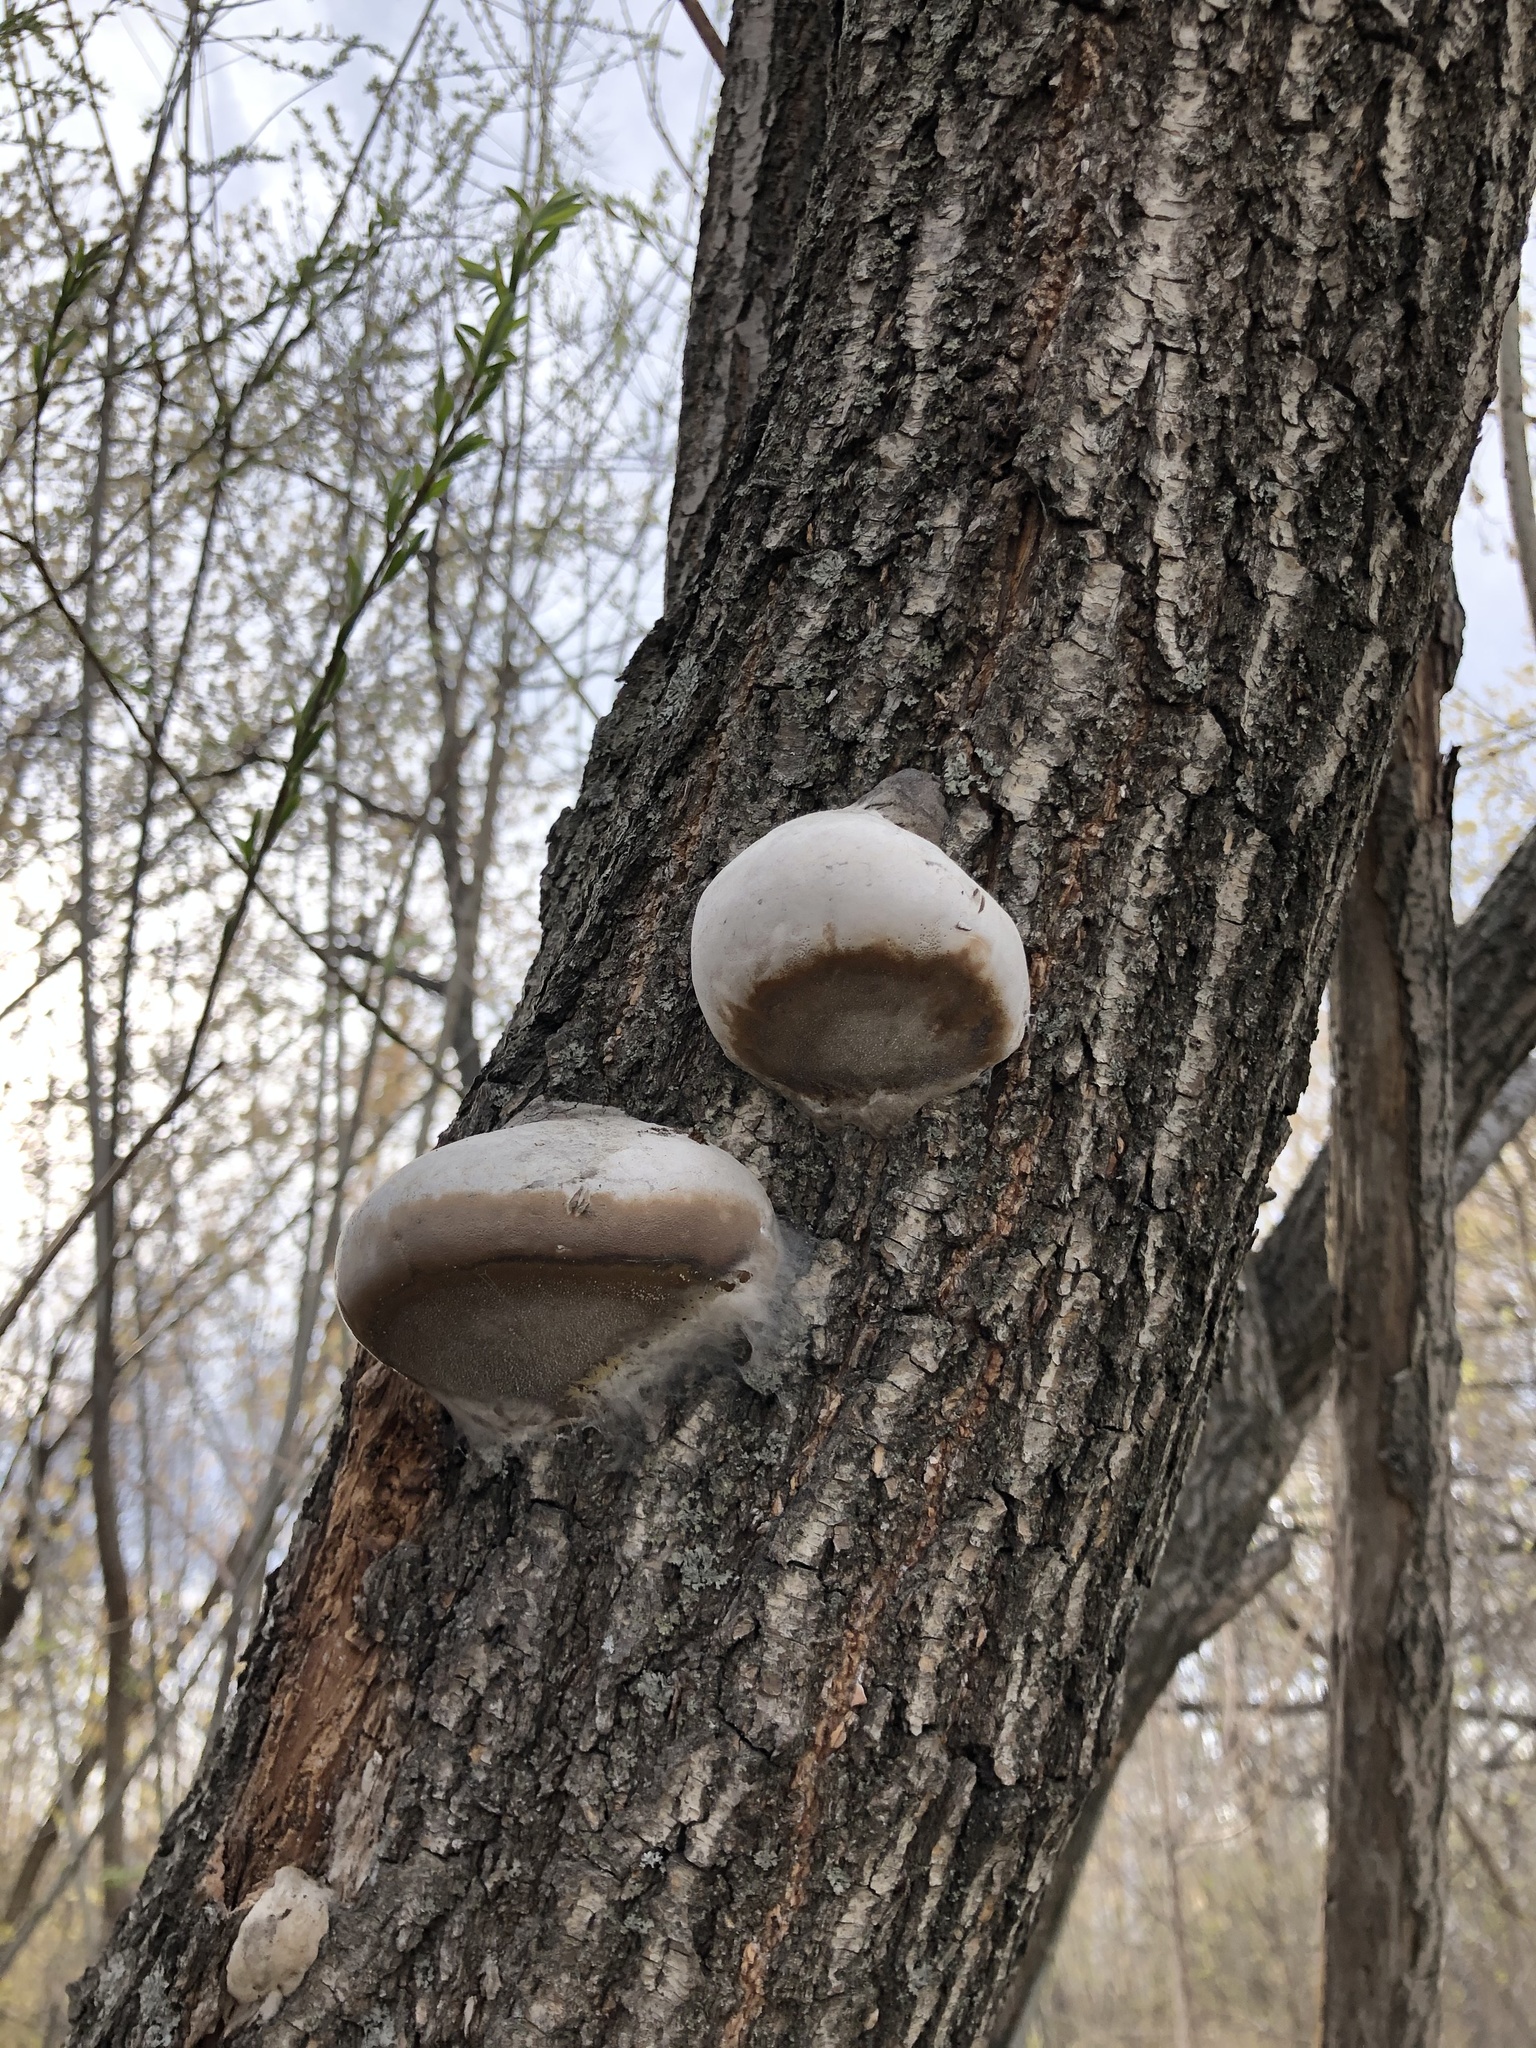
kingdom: Fungi
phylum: Basidiomycota
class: Agaricomycetes
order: Polyporales
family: Polyporaceae
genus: Fomes
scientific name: Fomes fomentarius
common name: Hoof fungus
